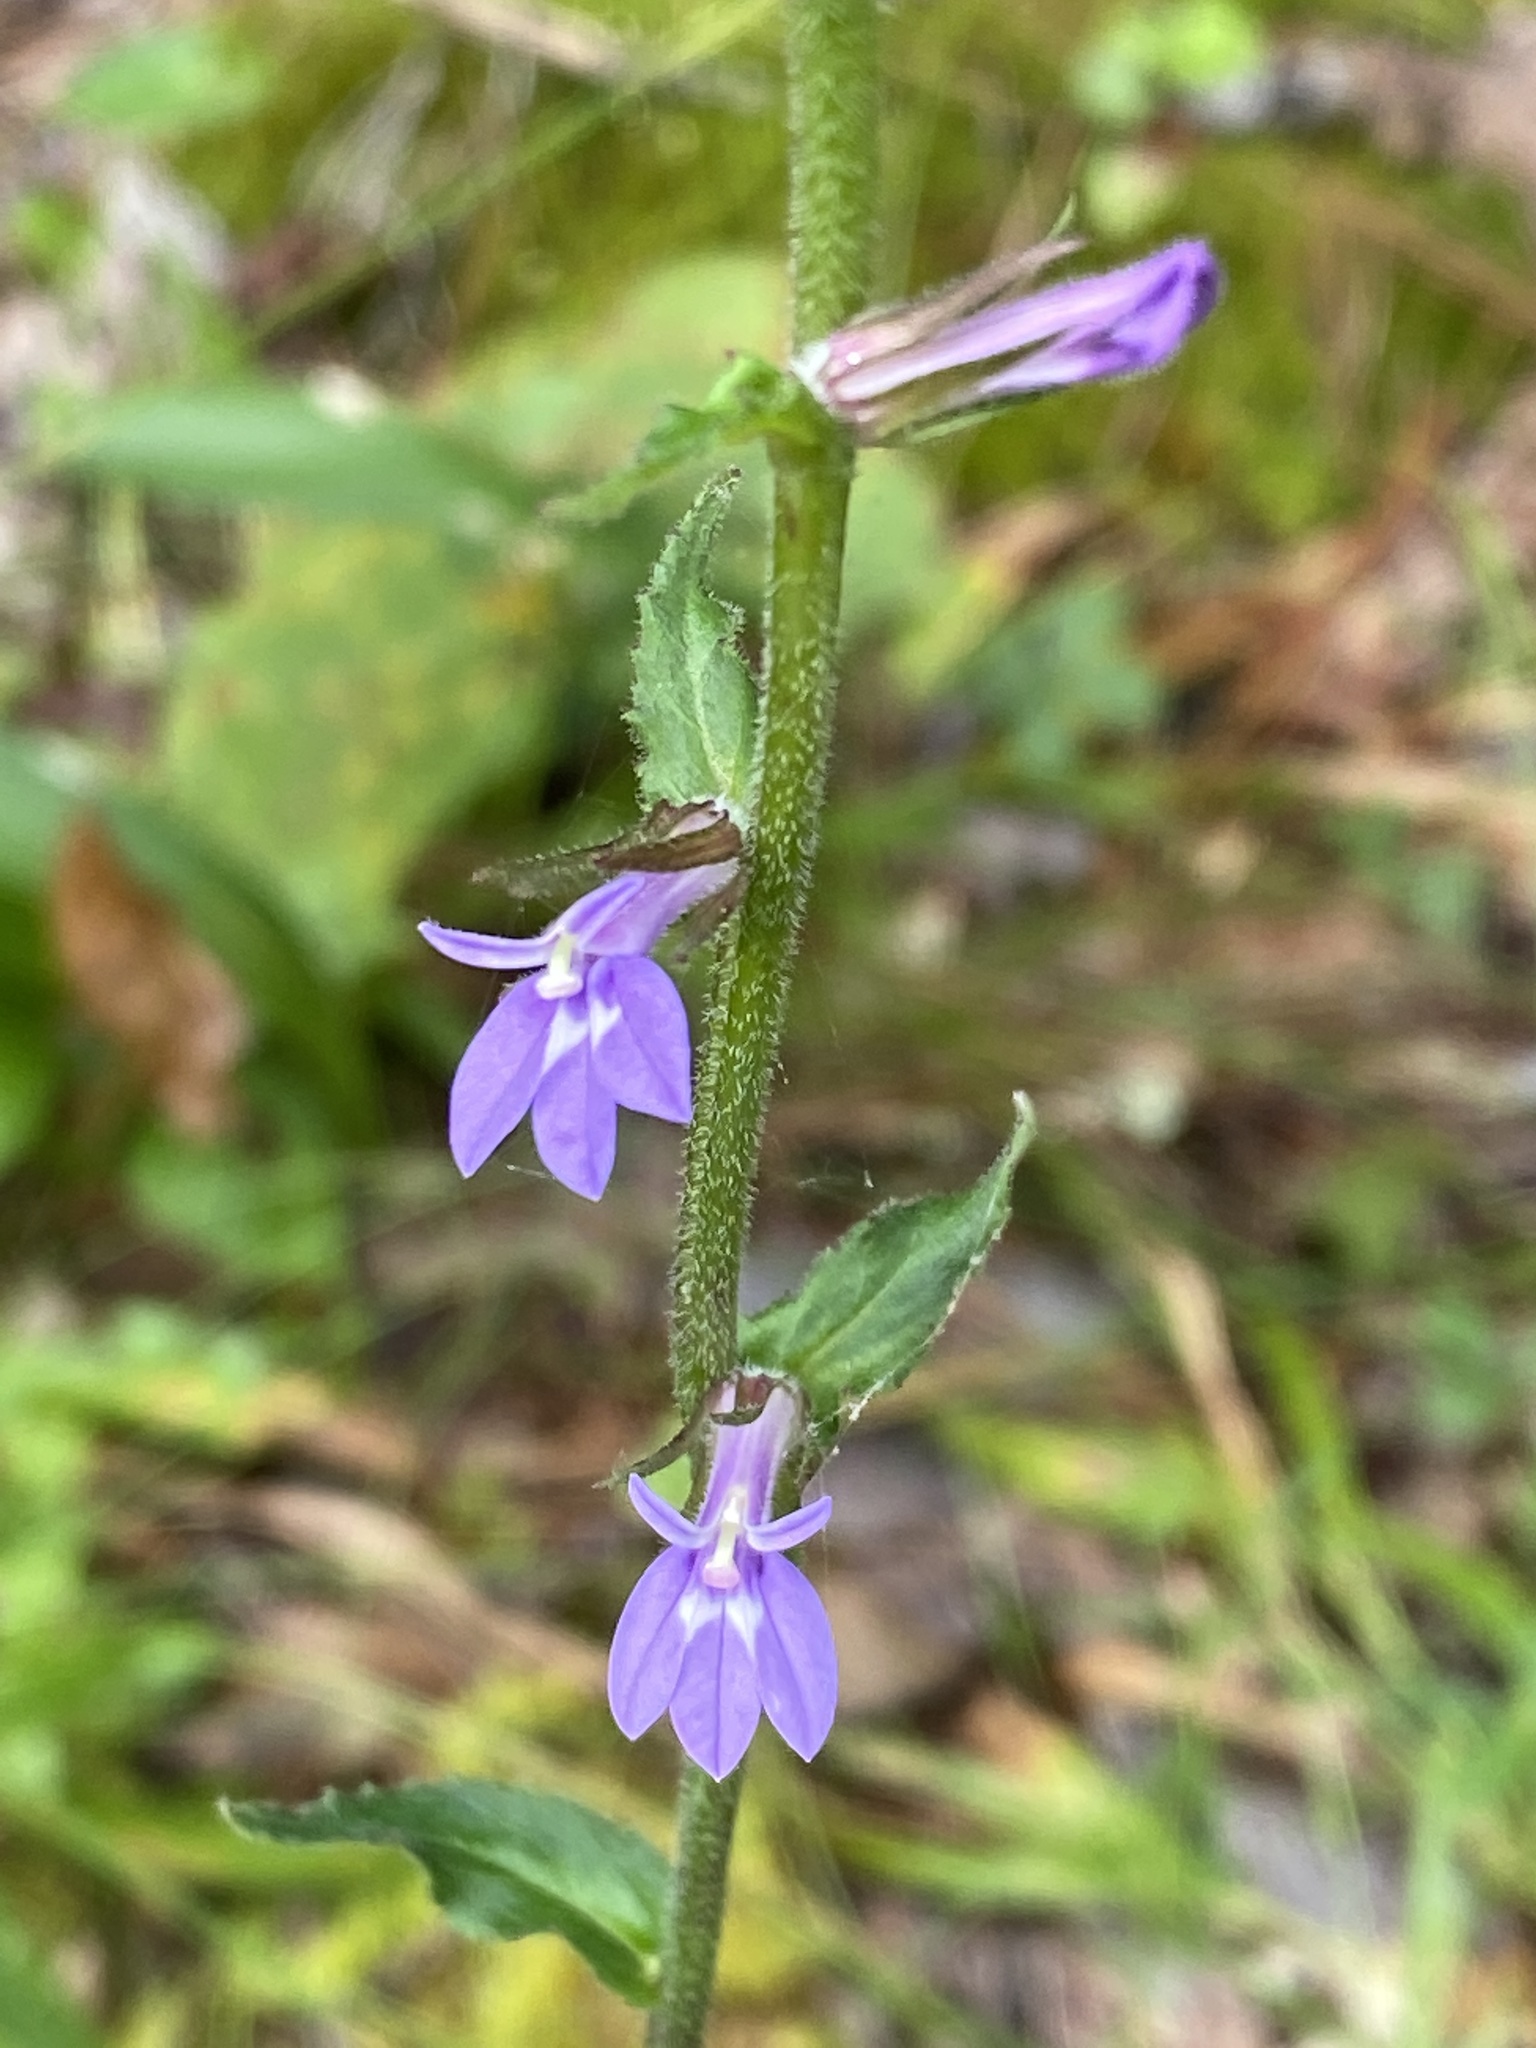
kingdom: Plantae
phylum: Tracheophyta
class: Magnoliopsida
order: Asterales
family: Campanulaceae
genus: Lobelia
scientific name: Lobelia puberula
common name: Purple dewdrop
